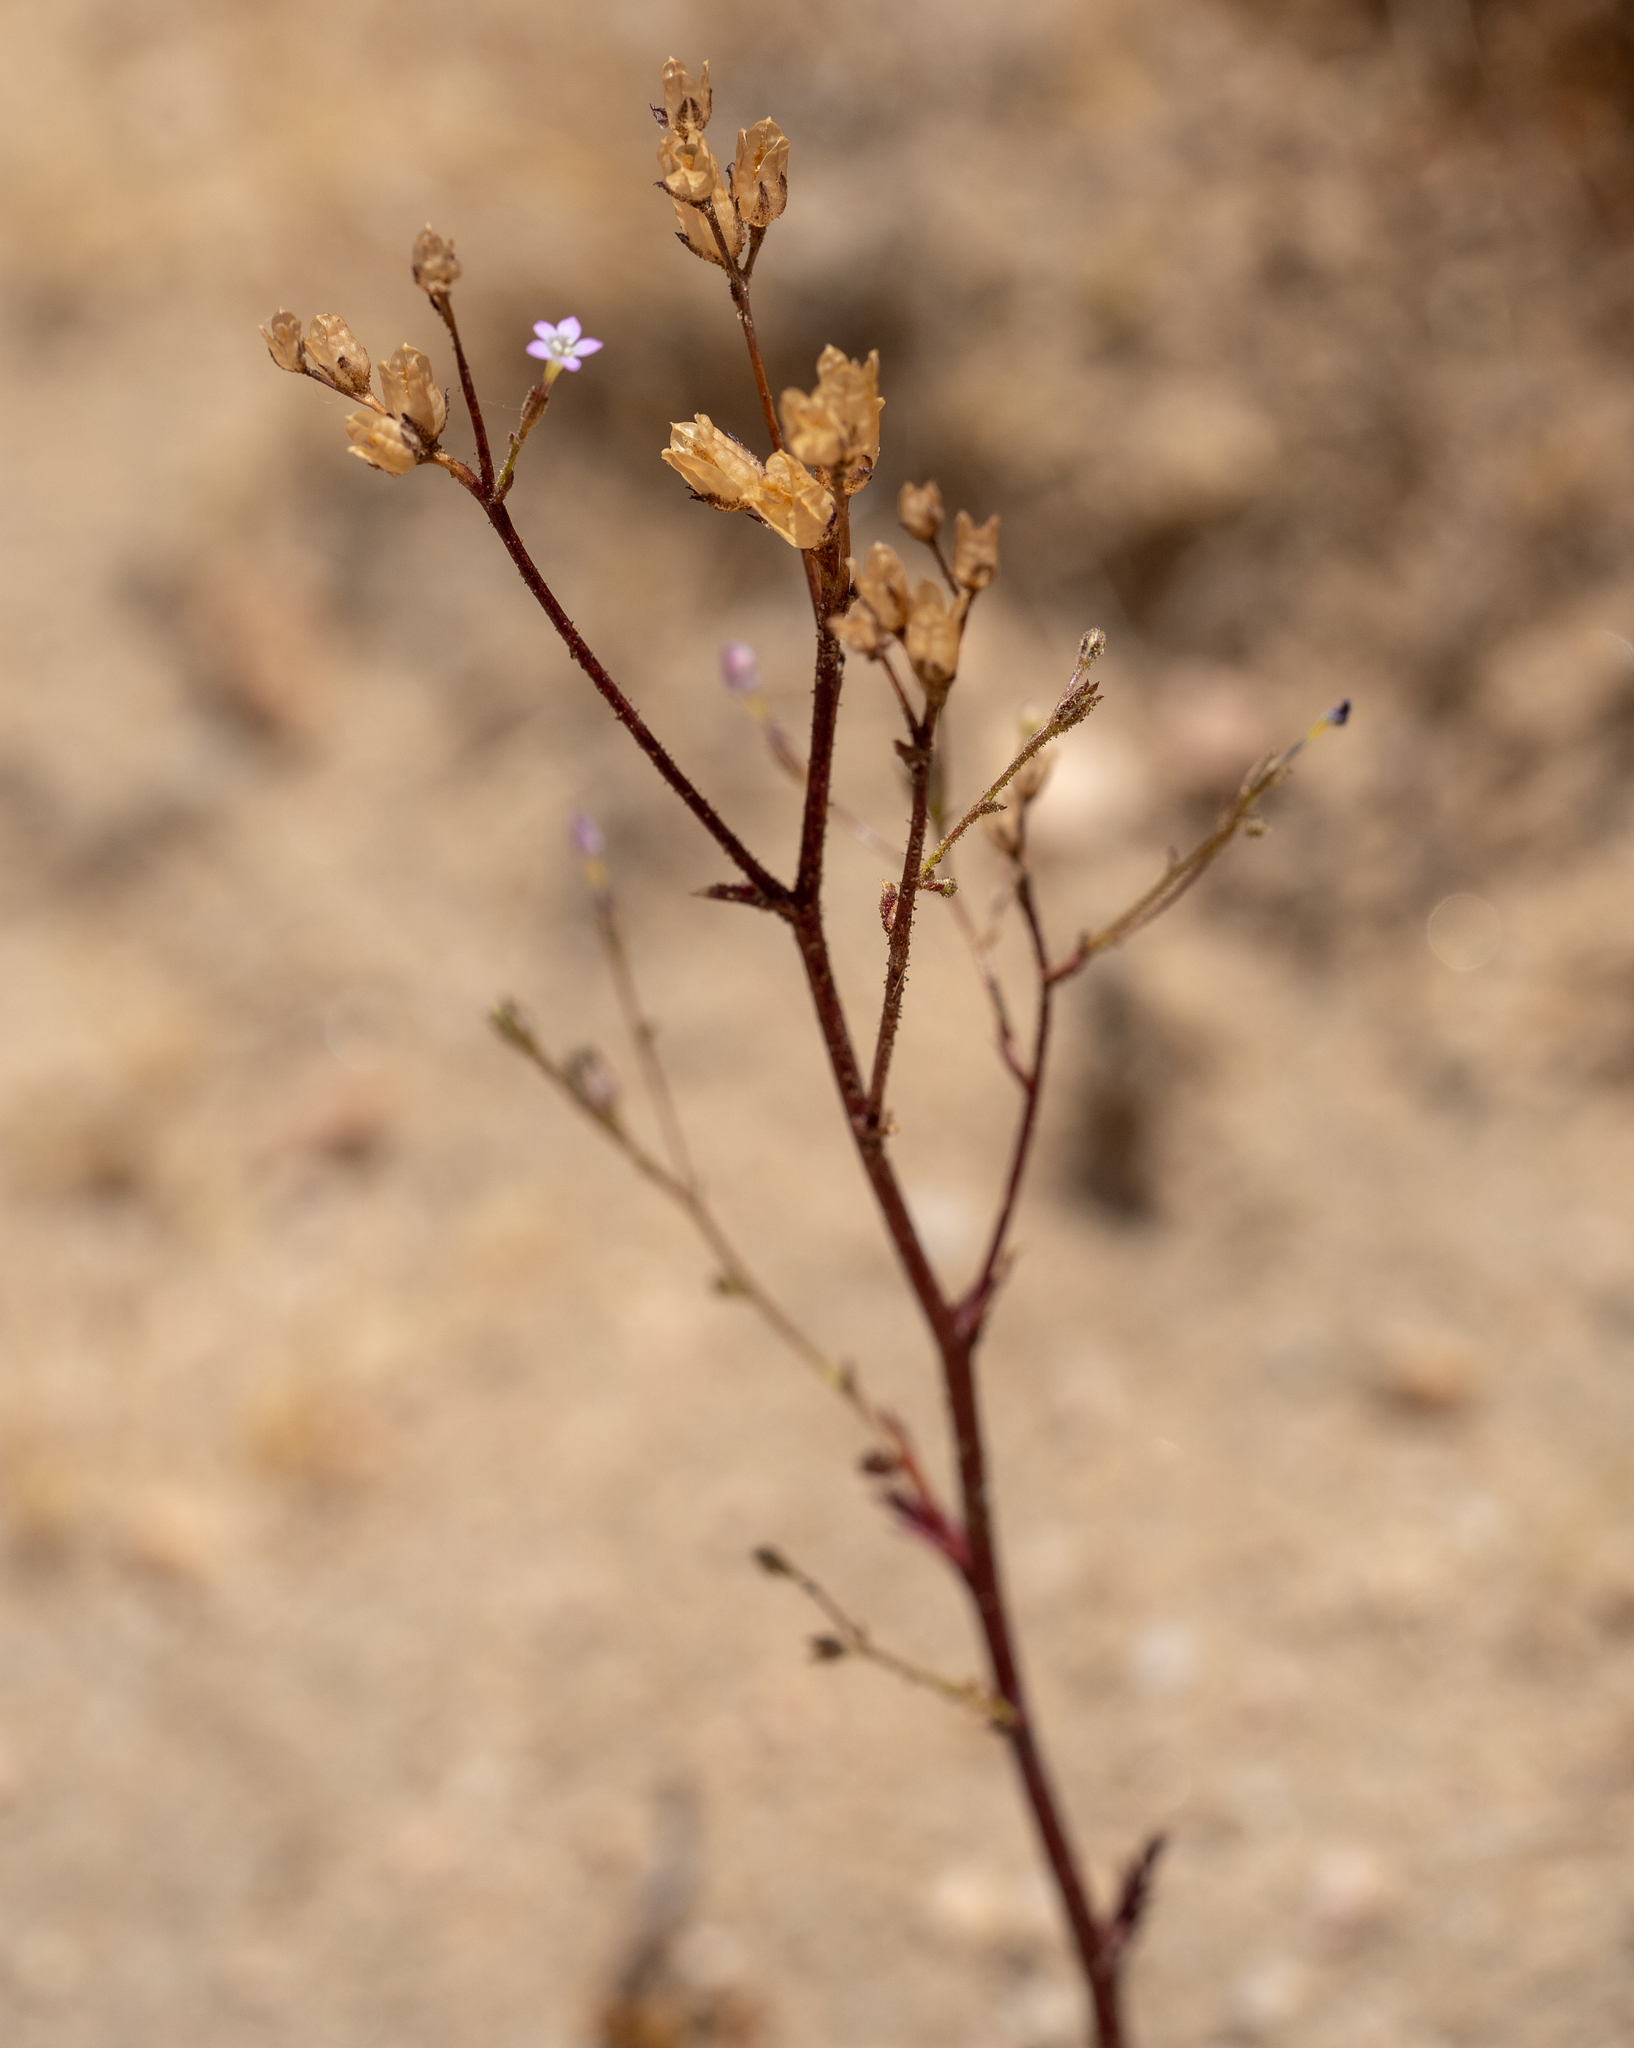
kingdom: Plantae
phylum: Tracheophyta
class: Magnoliopsida
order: Ericales
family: Polemoniaceae
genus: Gilia
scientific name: Gilia sinuata
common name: Rosy gilia
